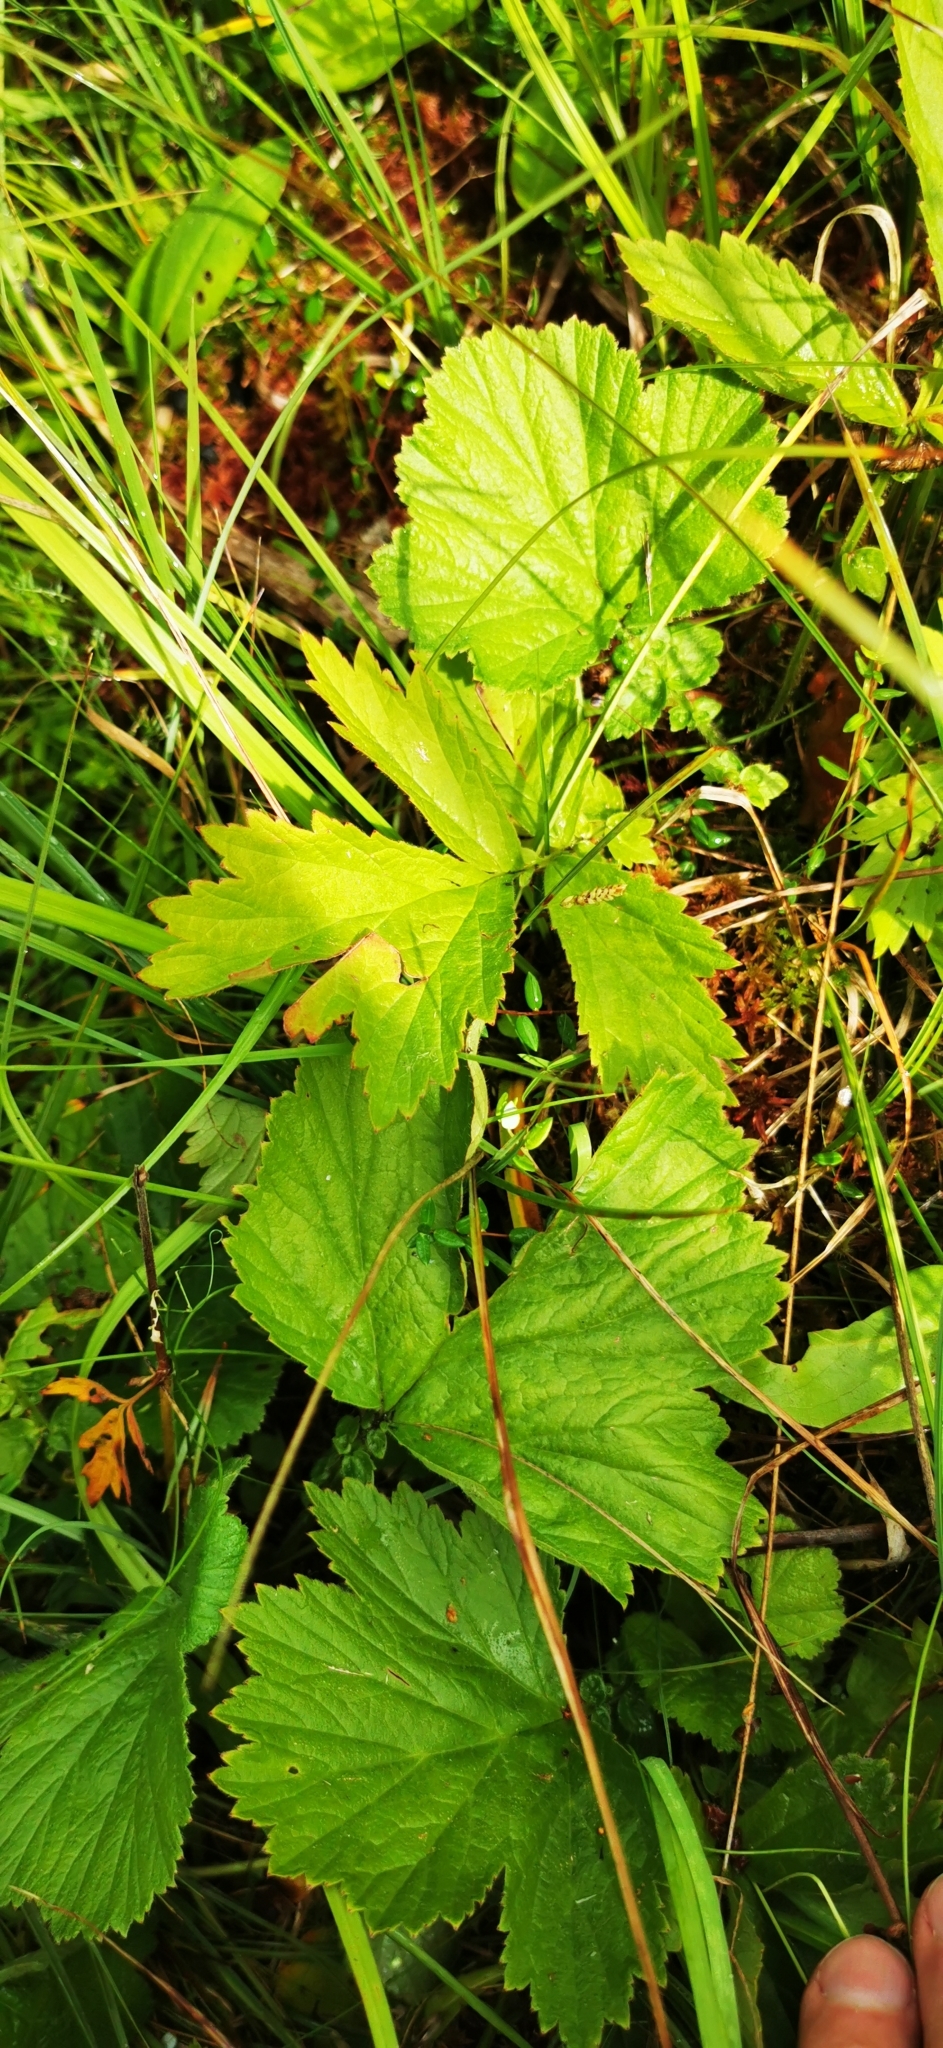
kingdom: Plantae
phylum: Tracheophyta
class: Magnoliopsida
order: Rosales
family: Rosaceae
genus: Geum
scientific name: Geum rivale
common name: Water avens
